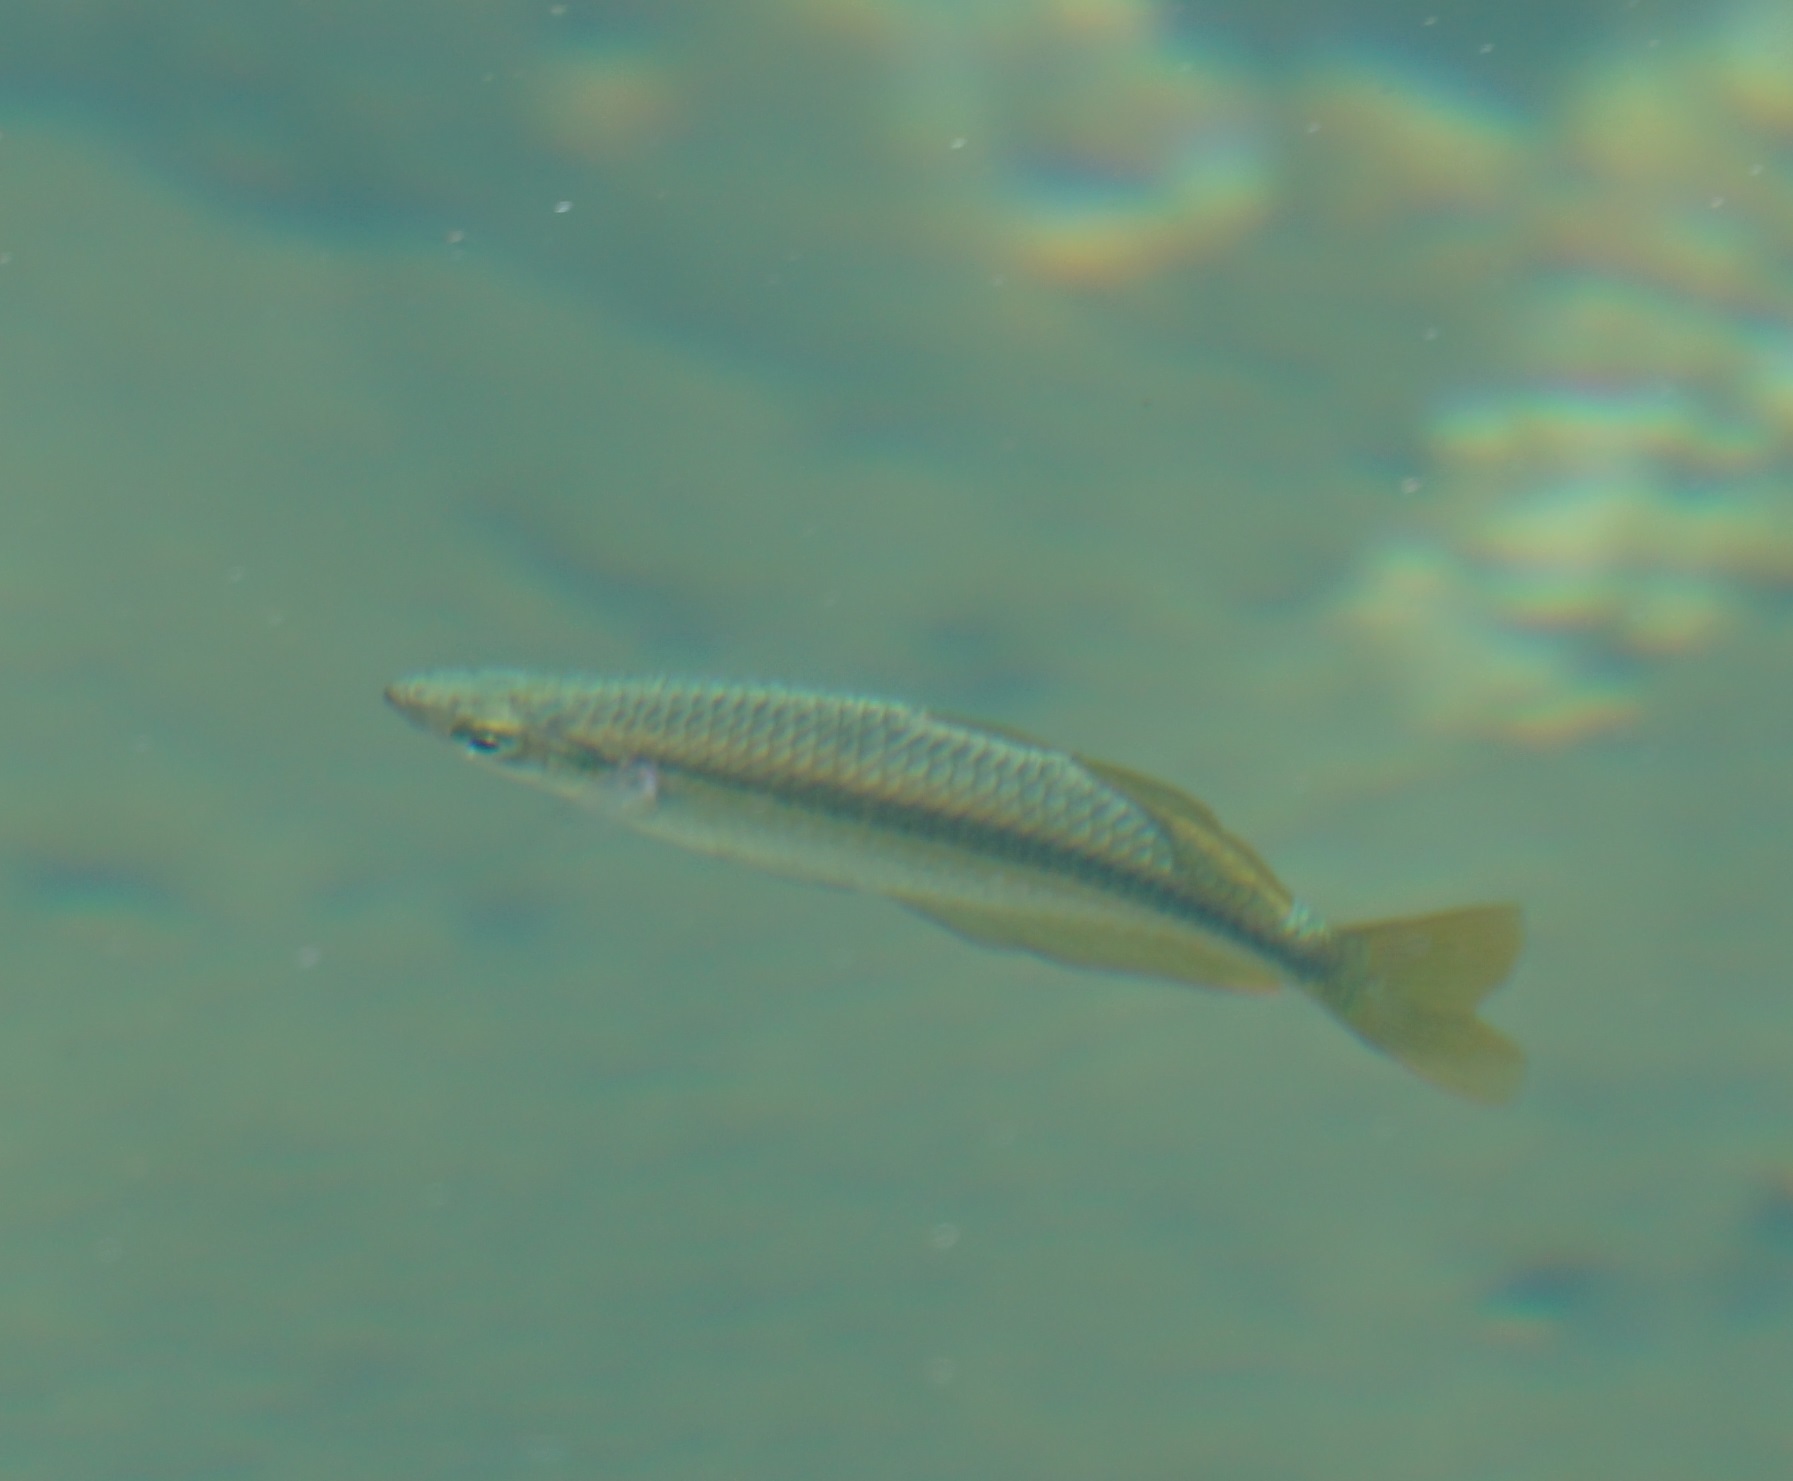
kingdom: Animalia
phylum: Chordata
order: Atheriniformes
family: Melanotaeniidae
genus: Melanotaenia
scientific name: Melanotaenia splendida
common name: Checkered rainbowfish
